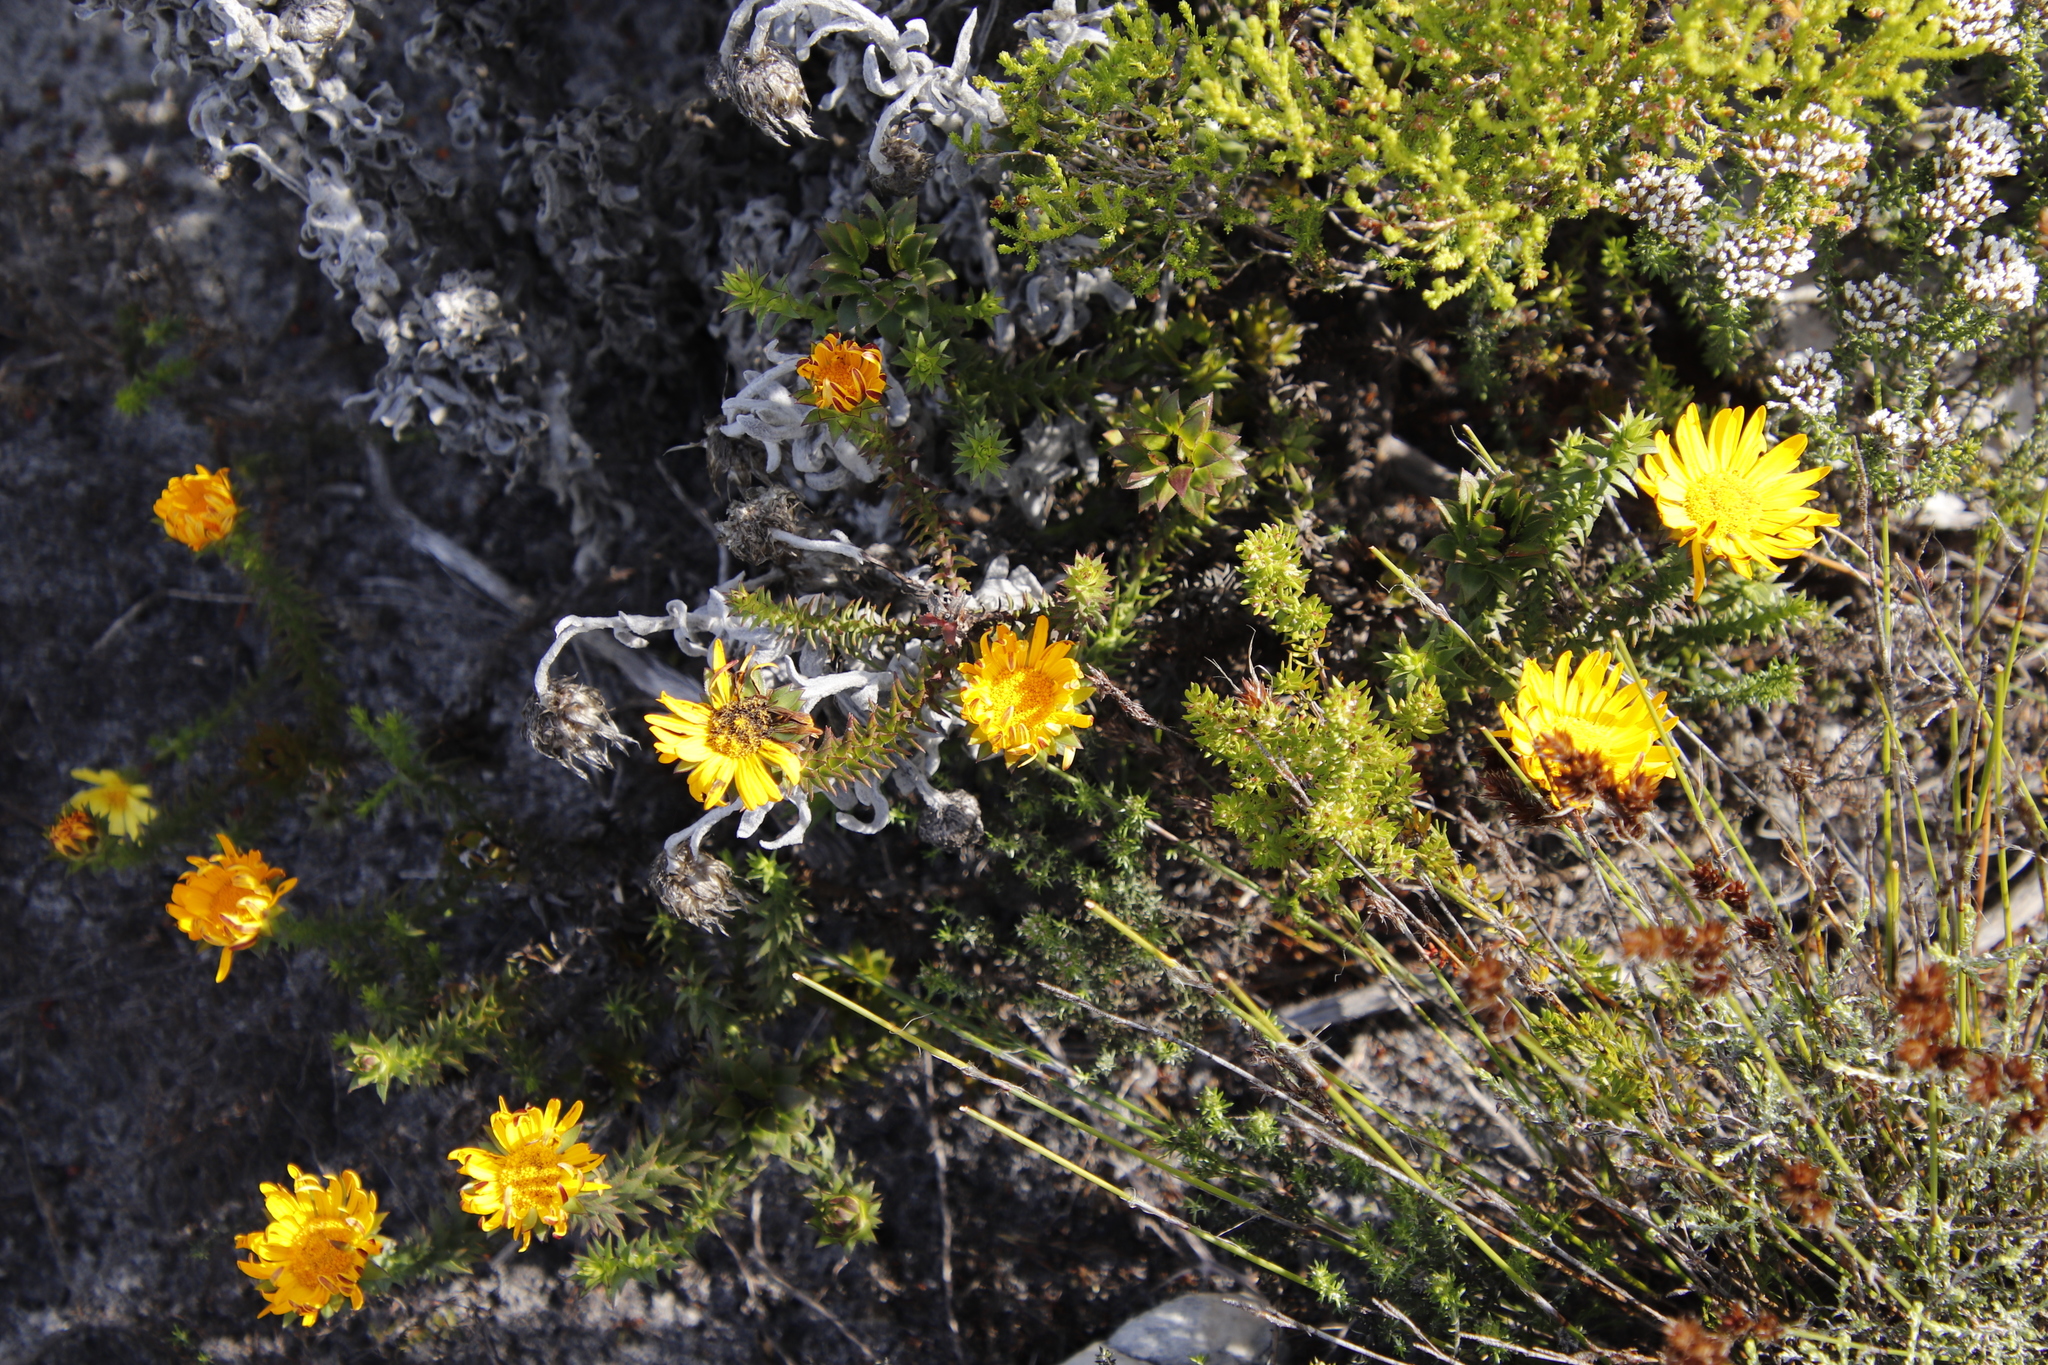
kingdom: Plantae
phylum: Tracheophyta
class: Magnoliopsida
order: Asterales
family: Asteraceae
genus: Cullumia
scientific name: Cullumia setosa
